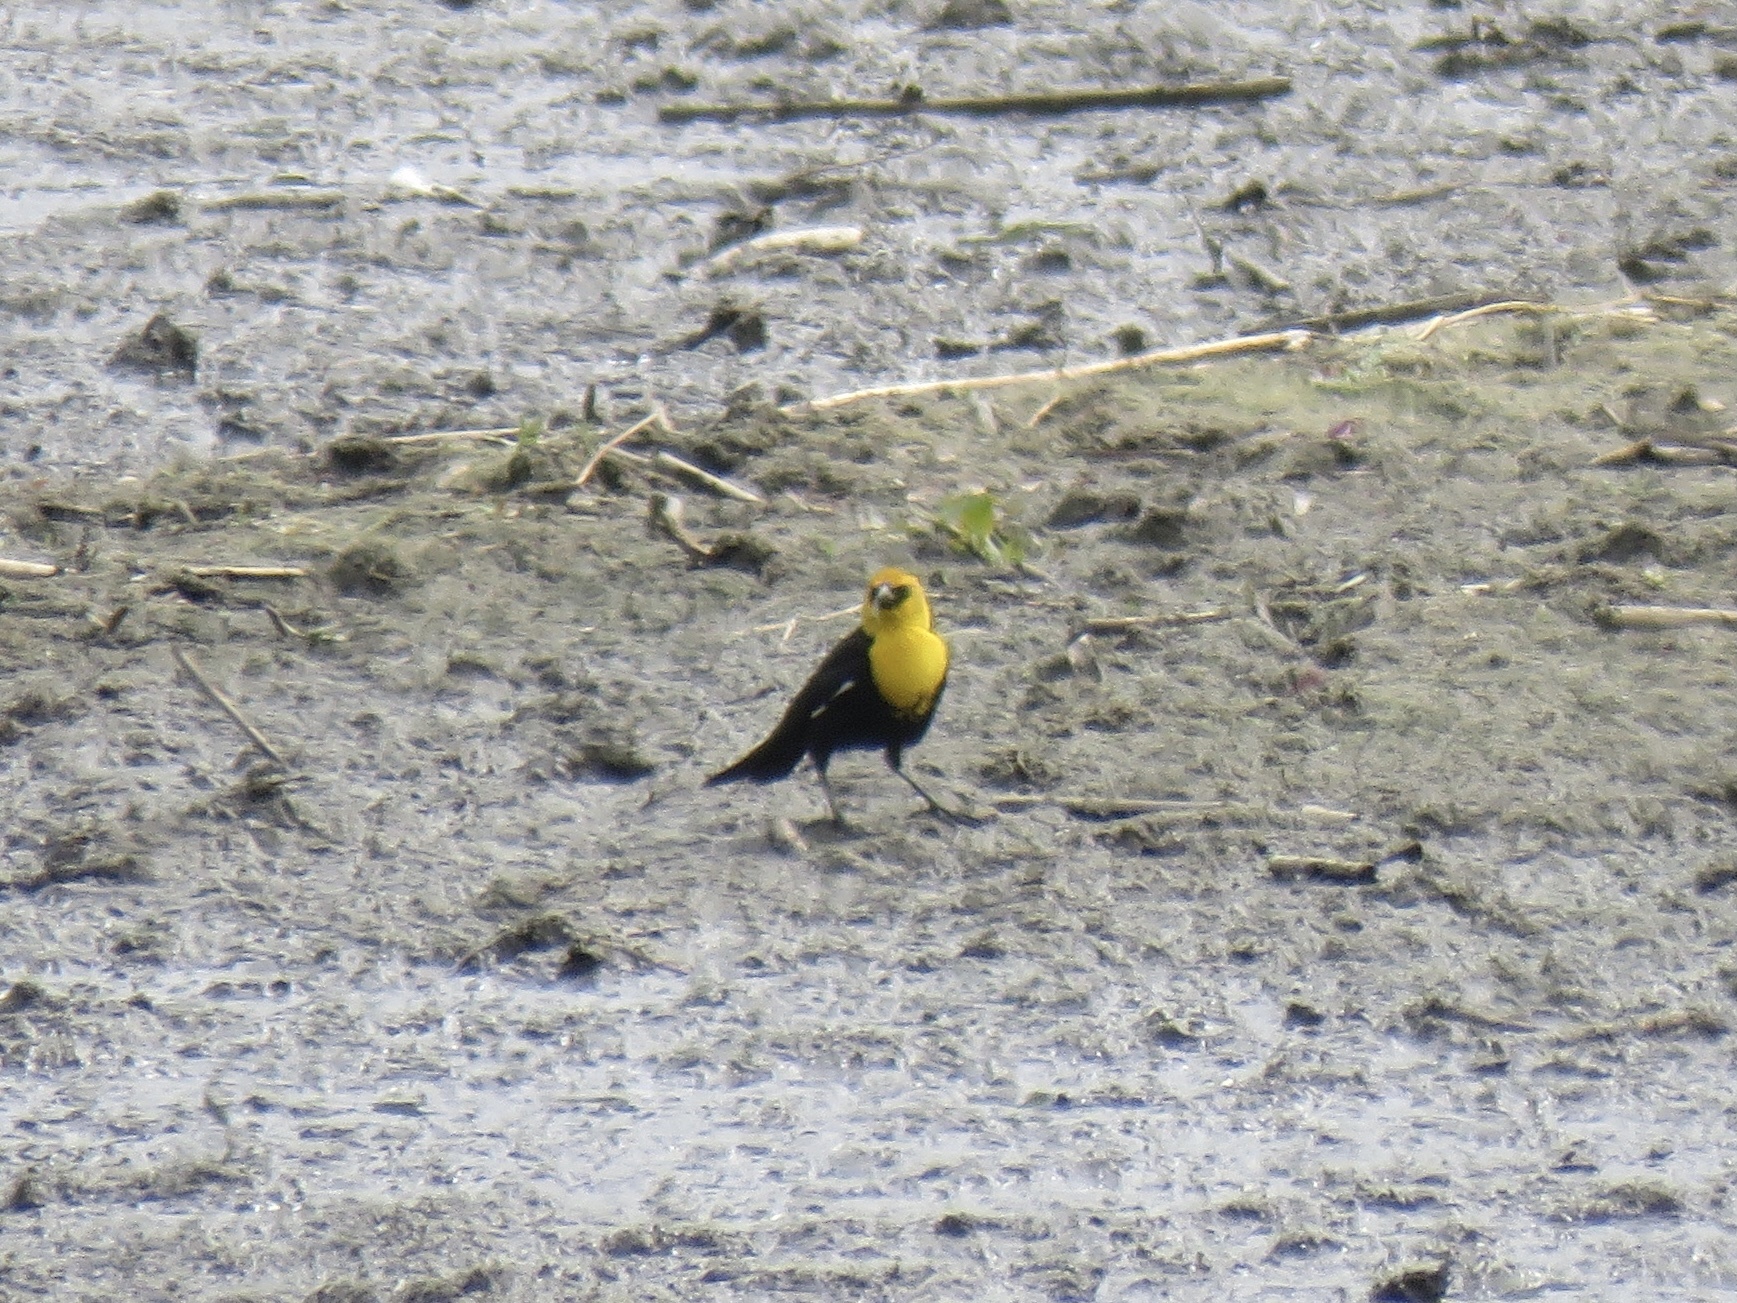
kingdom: Animalia
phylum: Chordata
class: Aves
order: Passeriformes
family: Icteridae
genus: Xanthocephalus
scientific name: Xanthocephalus xanthocephalus
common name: Yellow-headed blackbird
